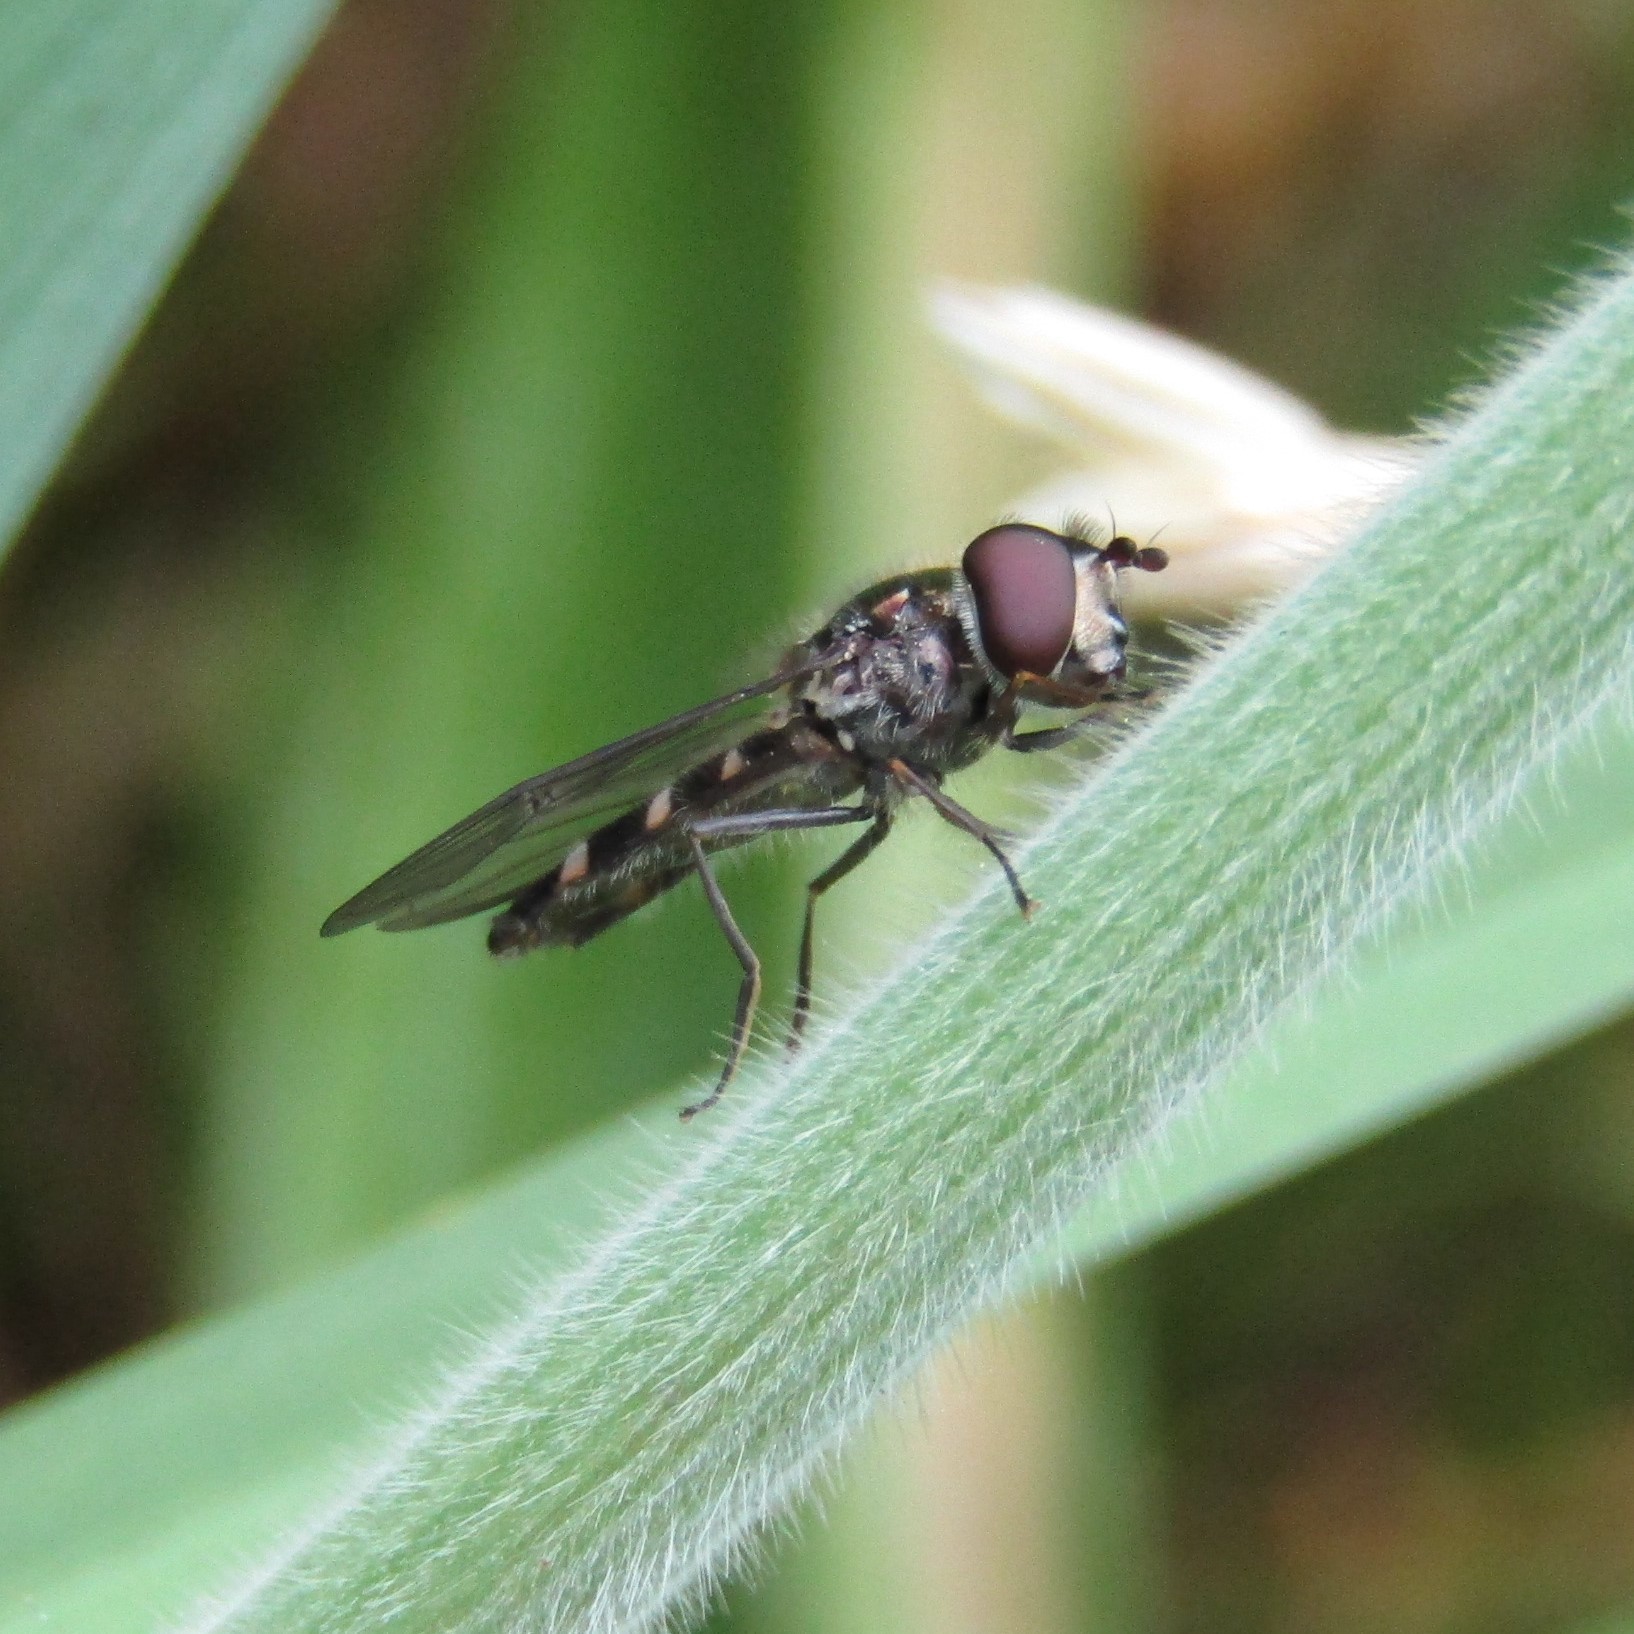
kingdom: Animalia
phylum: Arthropoda
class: Insecta
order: Diptera
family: Syrphidae
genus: Melangyna
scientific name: Melangyna novaezelandiae
